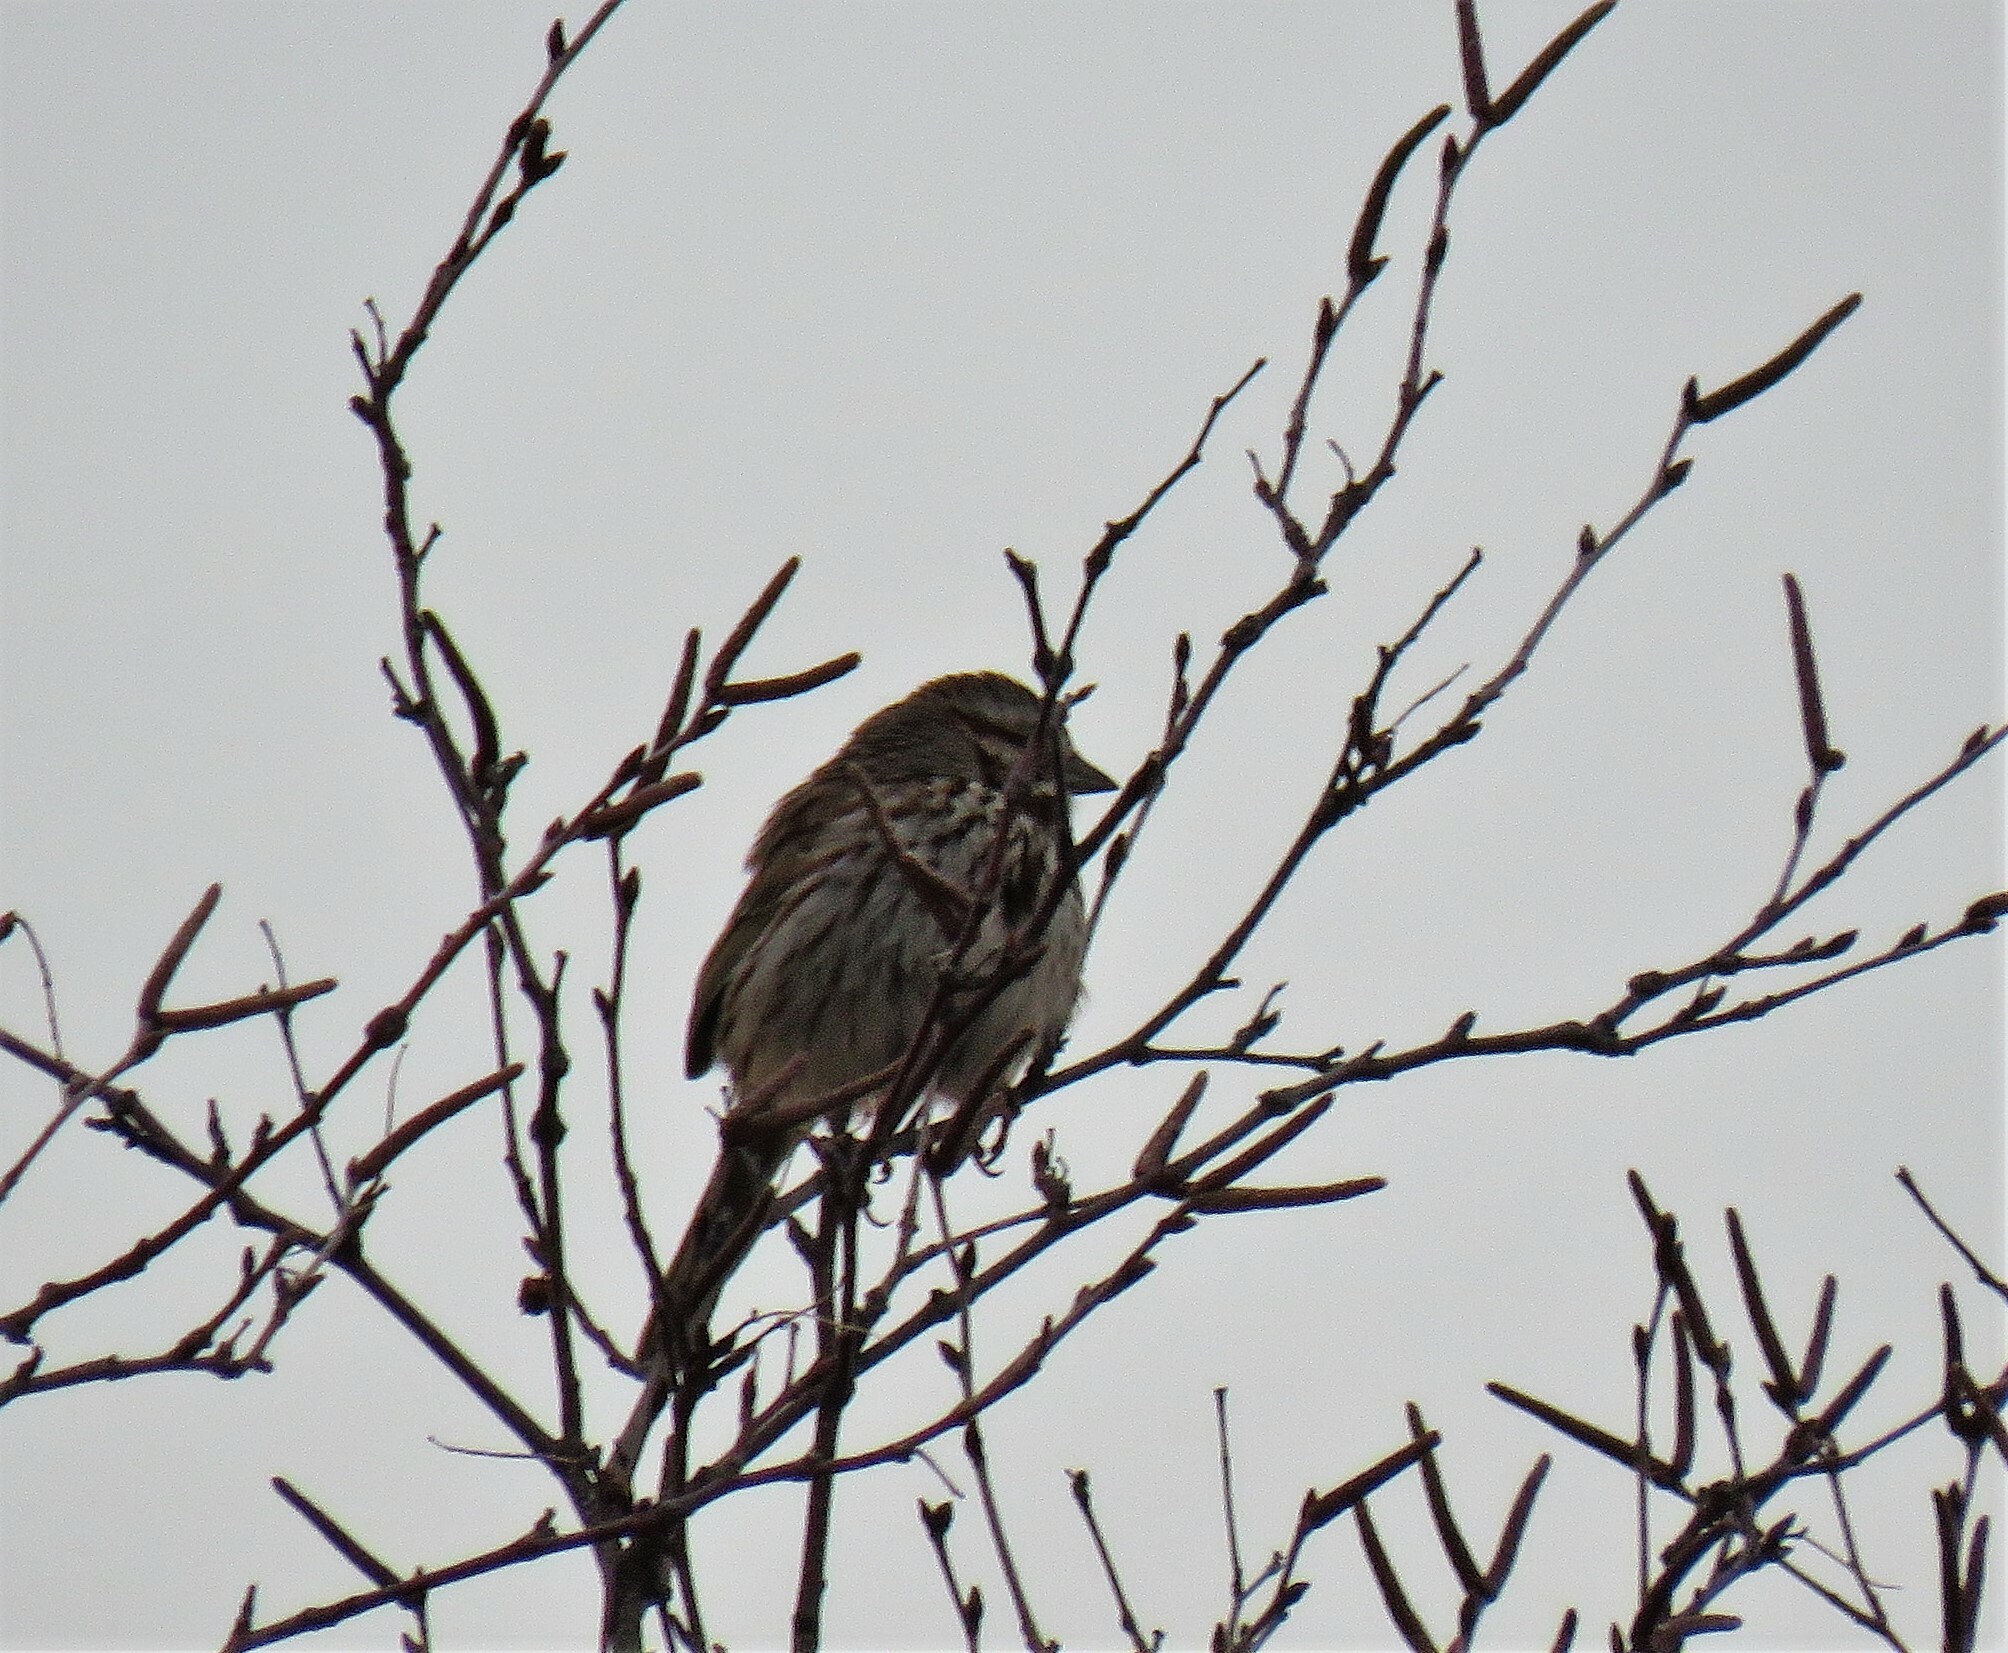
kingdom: Animalia
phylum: Chordata
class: Aves
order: Passeriformes
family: Passerellidae
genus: Melospiza
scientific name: Melospiza melodia
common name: Song sparrow
